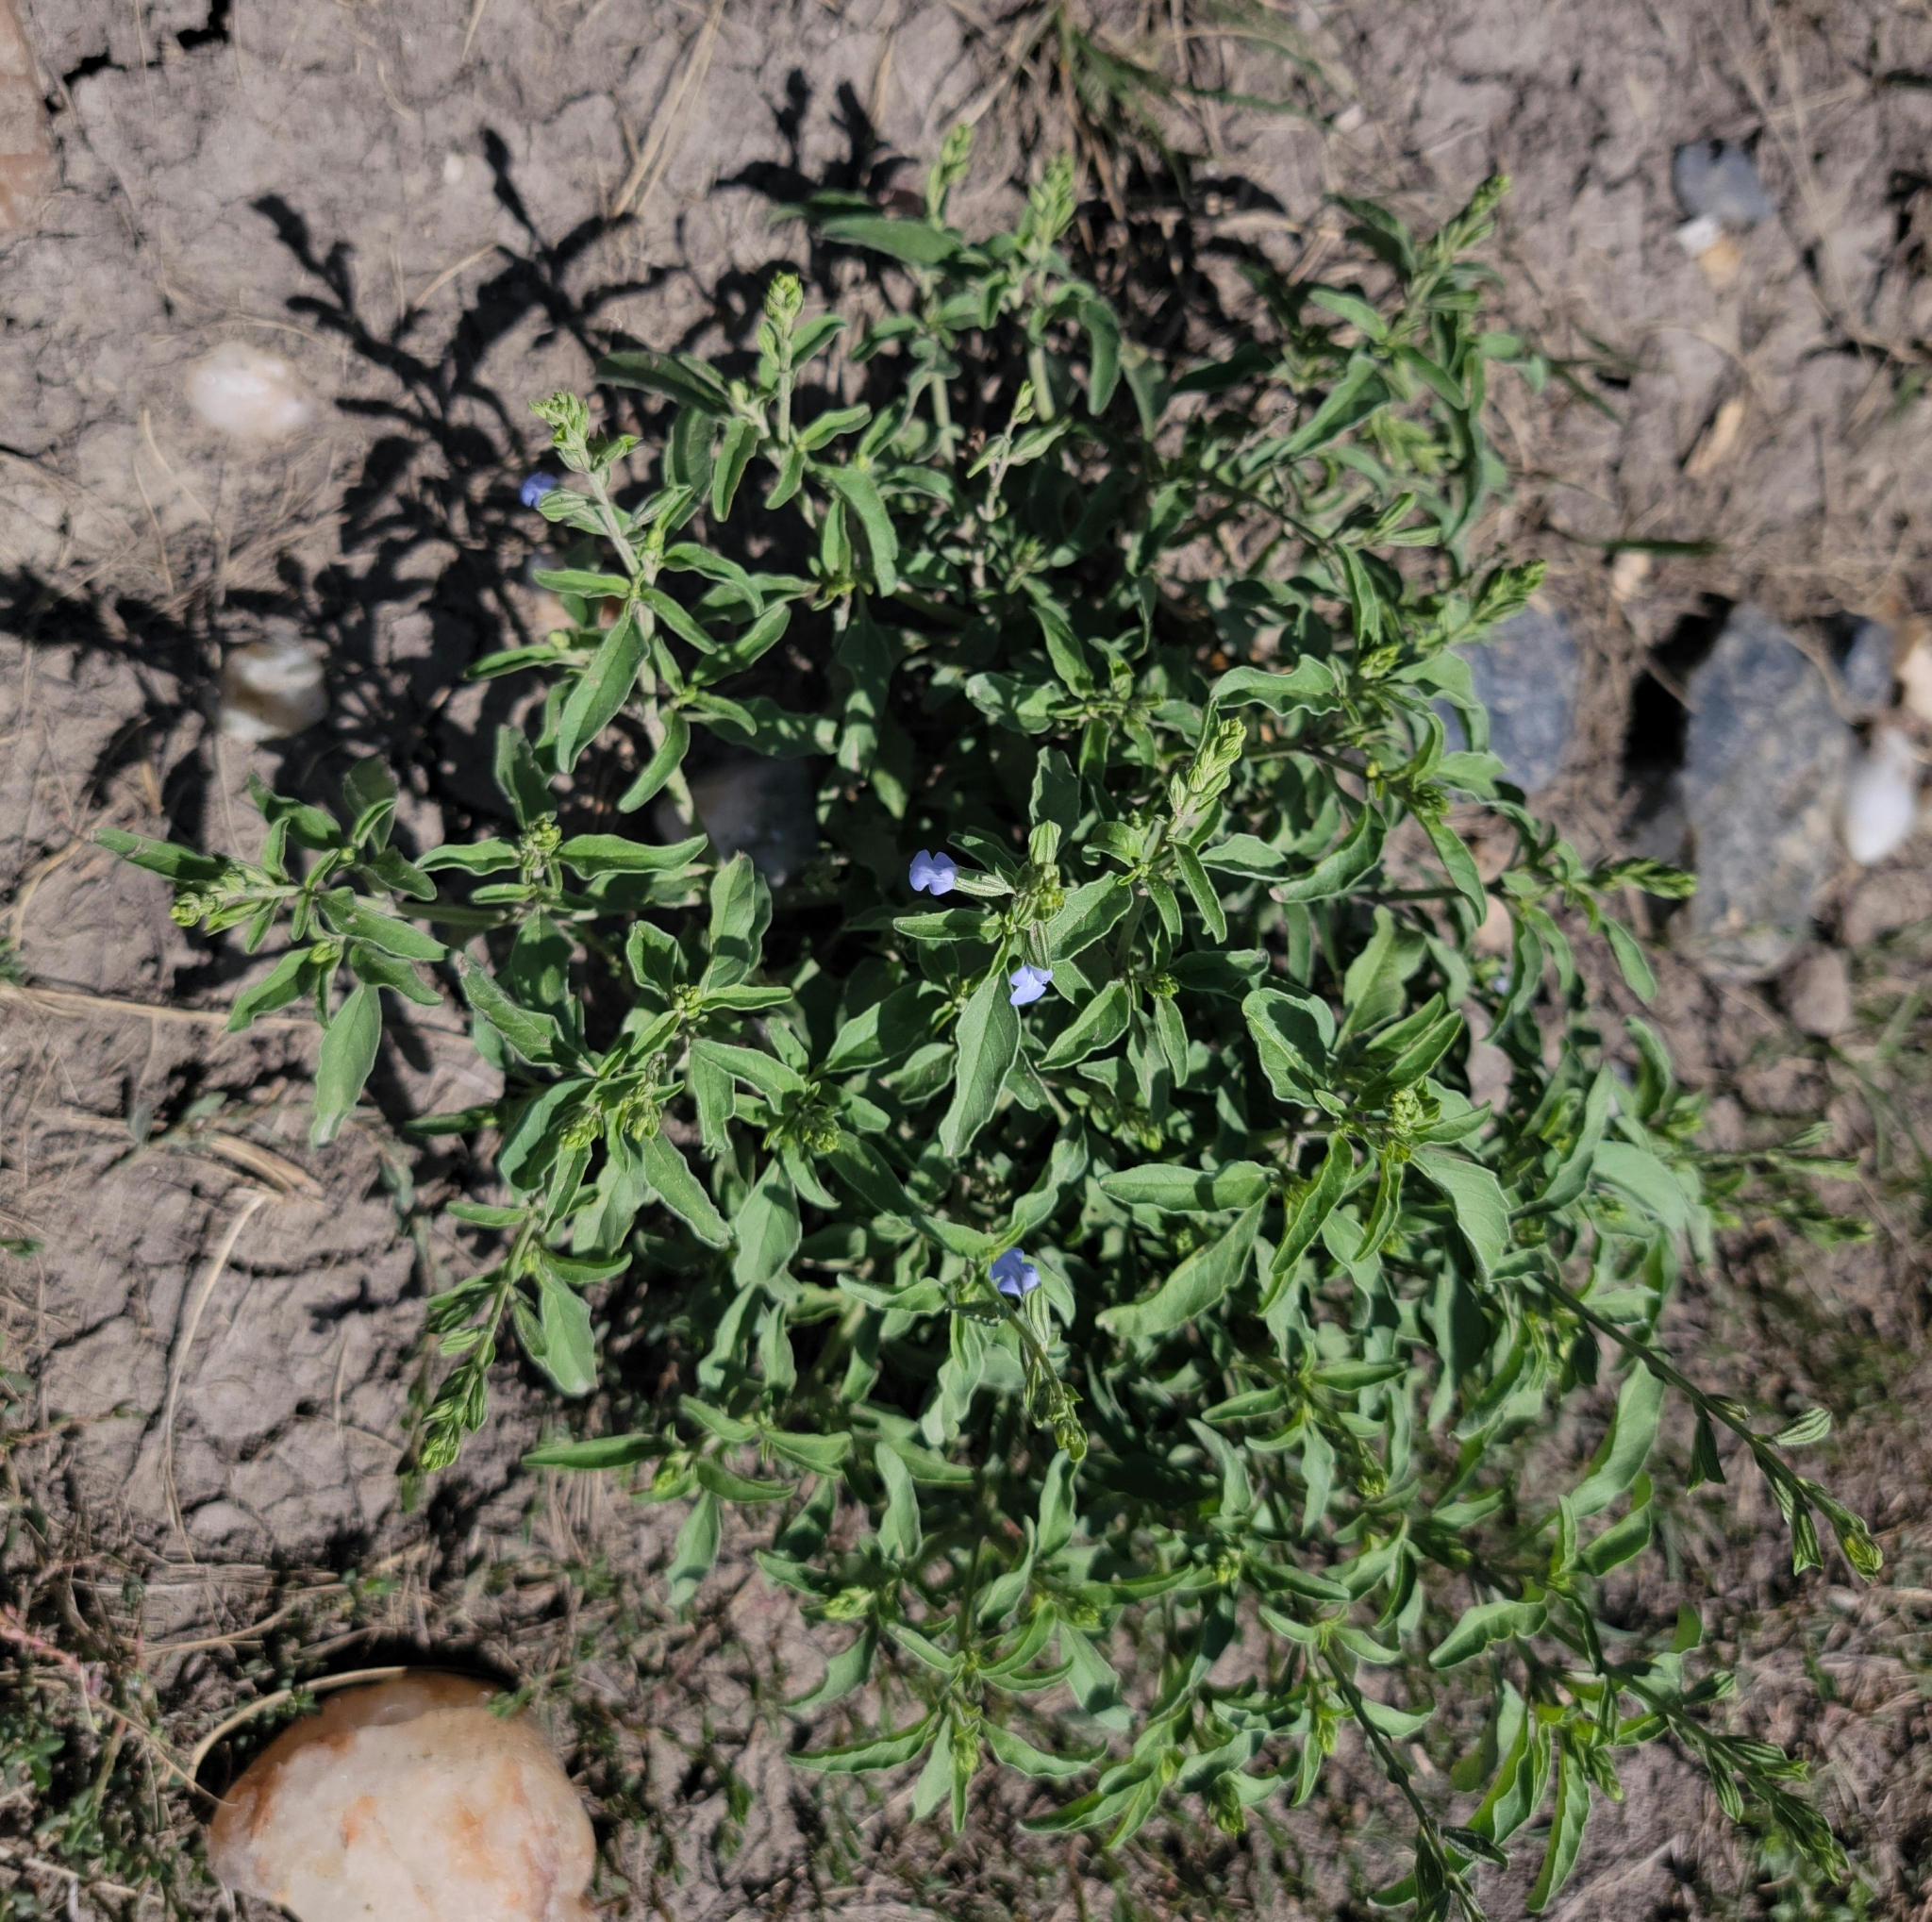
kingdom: Plantae
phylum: Tracheophyta
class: Magnoliopsida
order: Lamiales
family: Lamiaceae
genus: Salvia
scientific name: Salvia reflexa
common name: Mintweed
